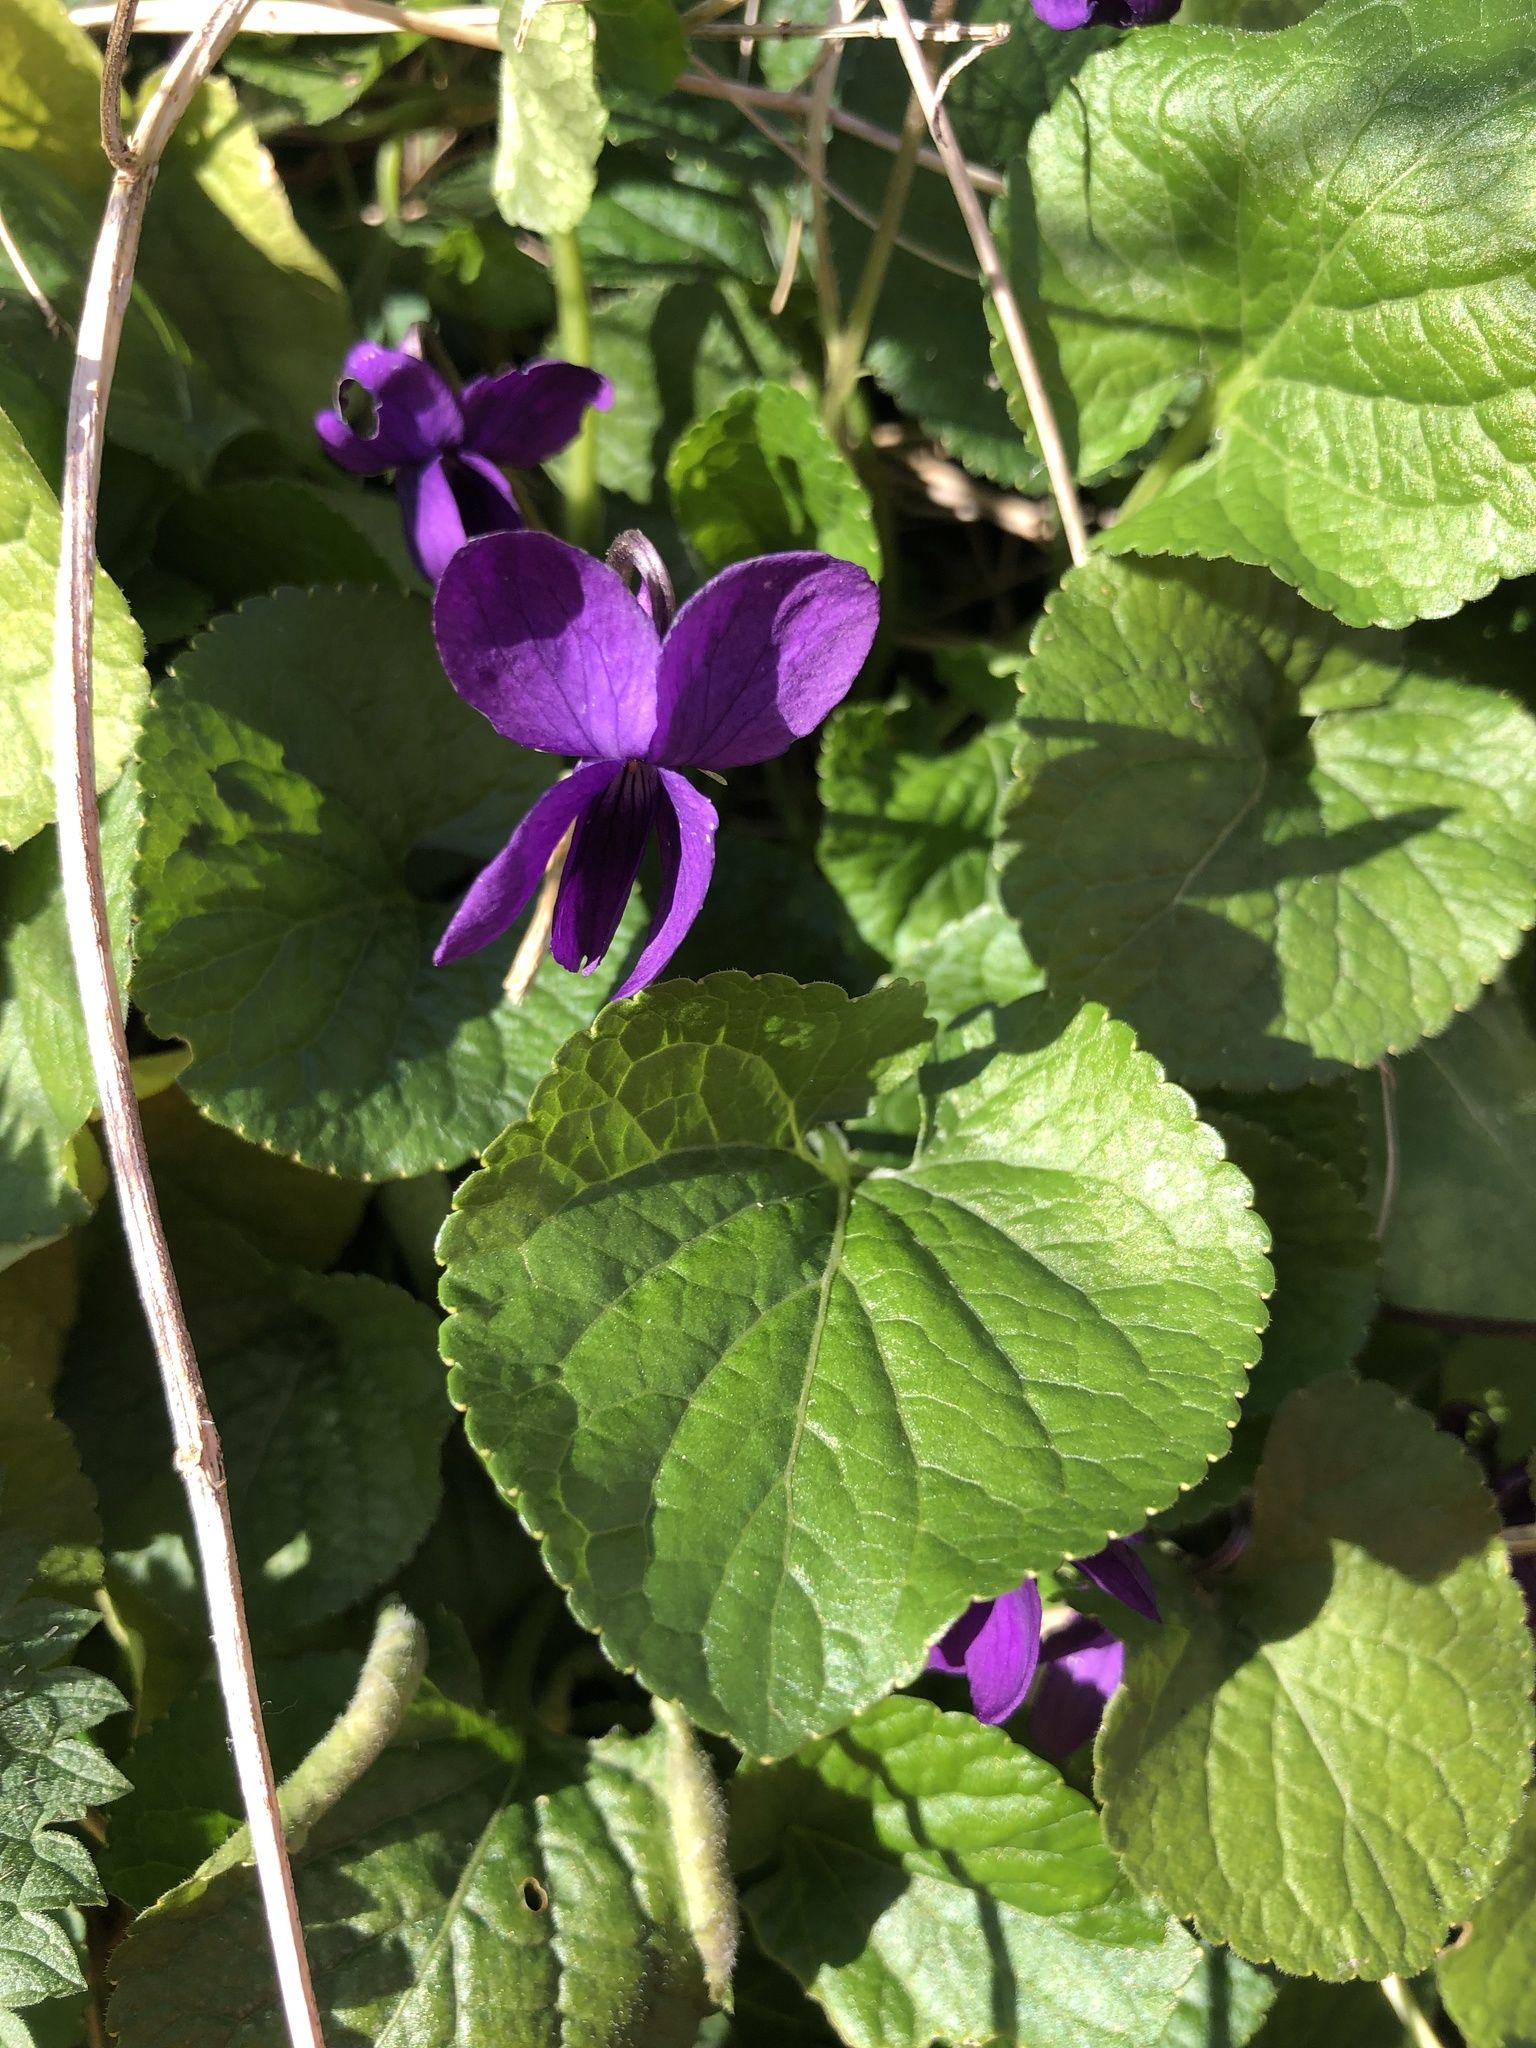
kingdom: Plantae
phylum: Tracheophyta
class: Magnoliopsida
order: Malpighiales
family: Violaceae
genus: Viola
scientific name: Viola odorata
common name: Sweet violet
